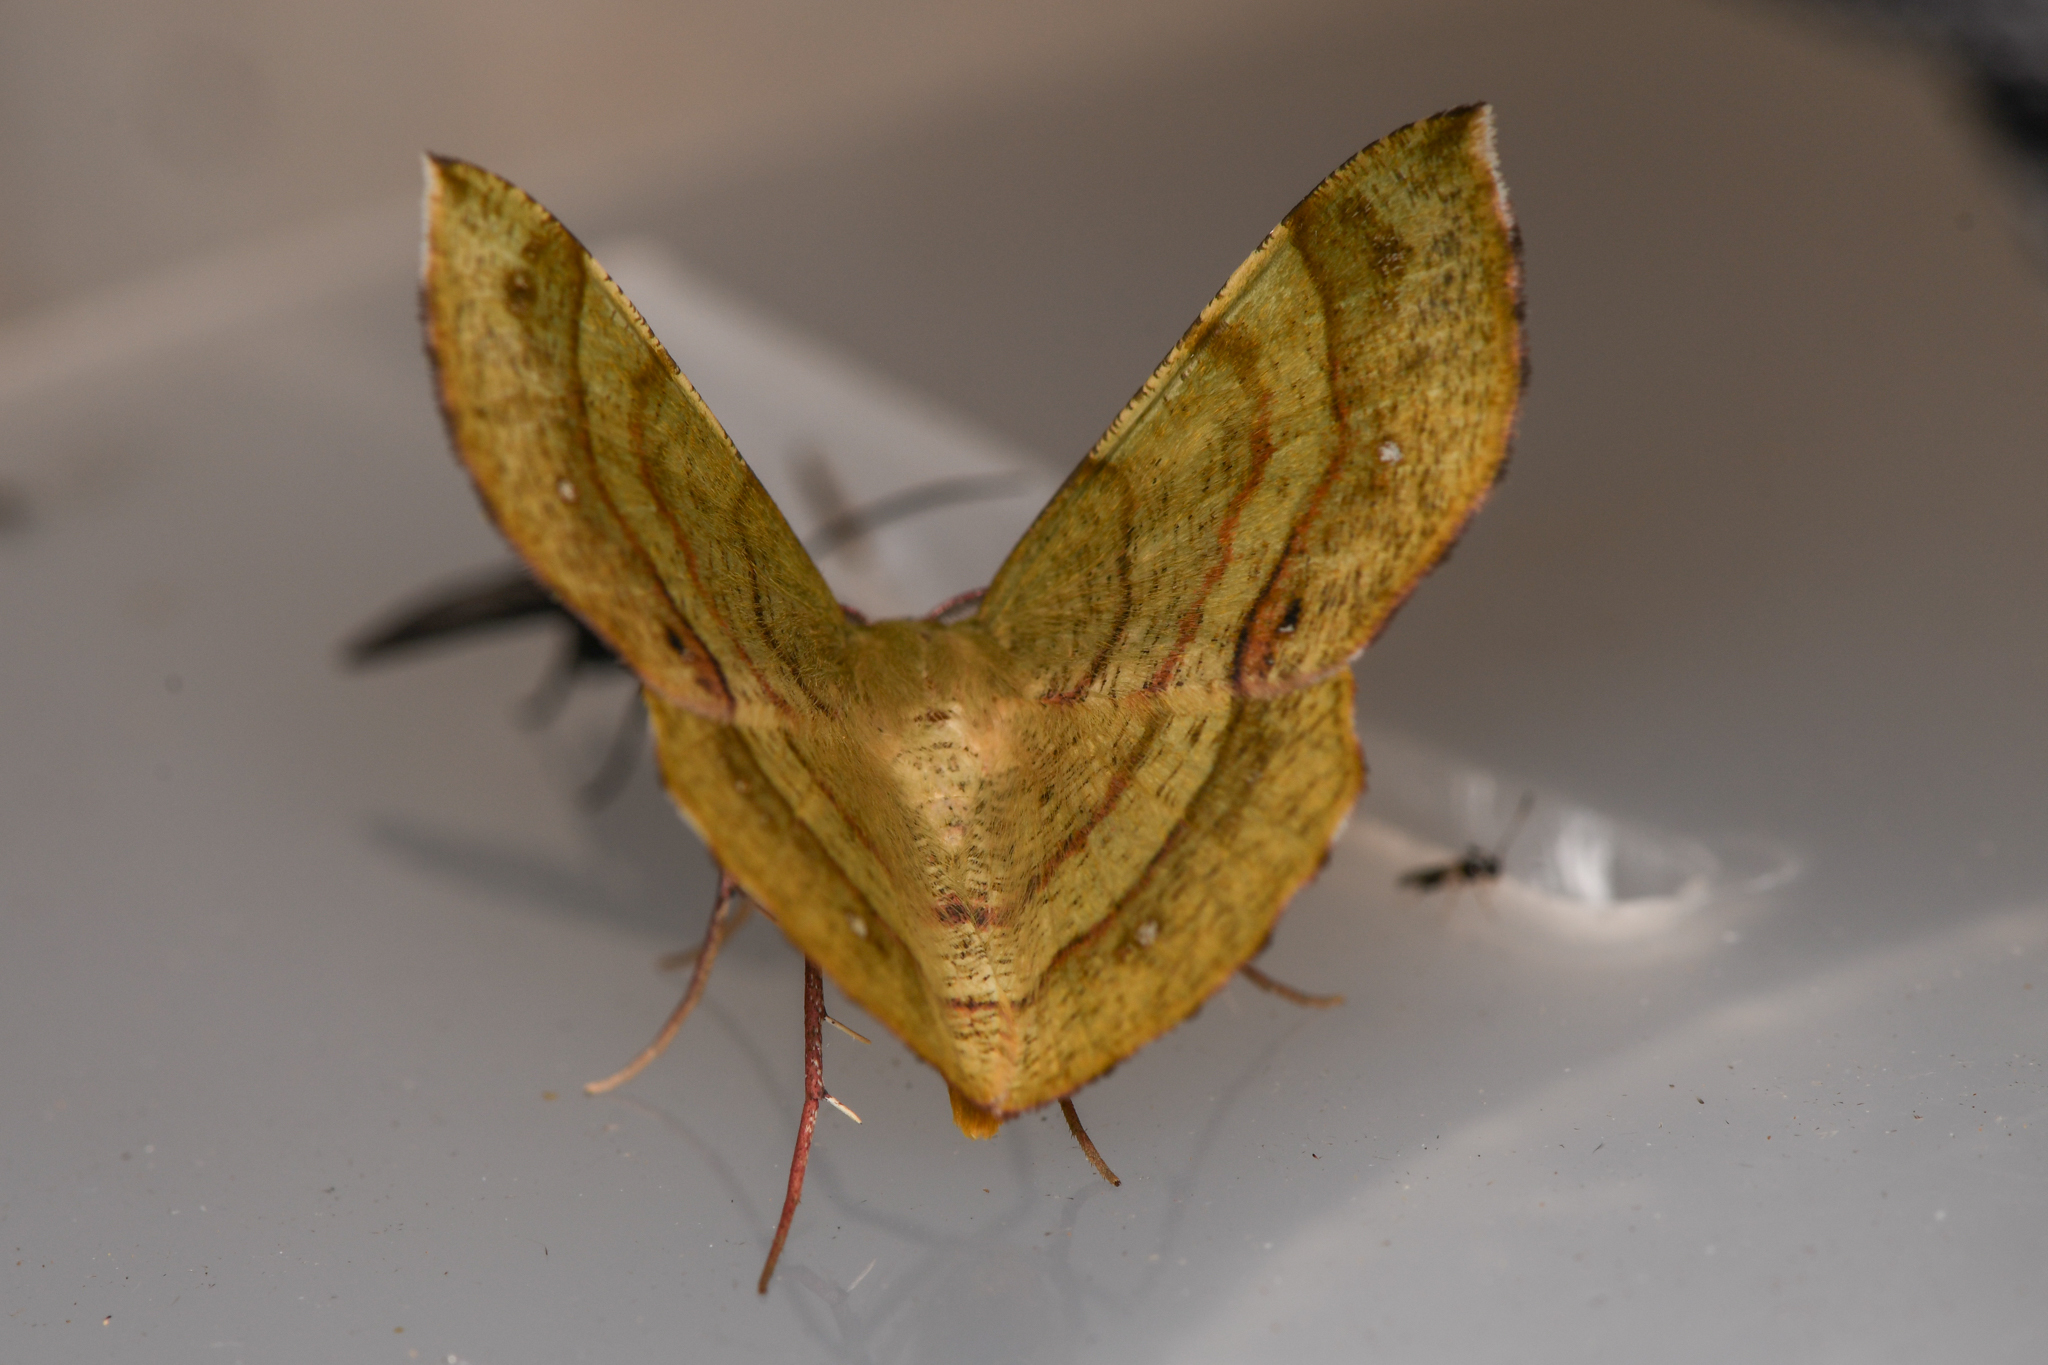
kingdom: Animalia
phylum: Arthropoda
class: Insecta
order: Lepidoptera
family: Geometridae
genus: Erastria
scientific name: Erastria decrepitaria
